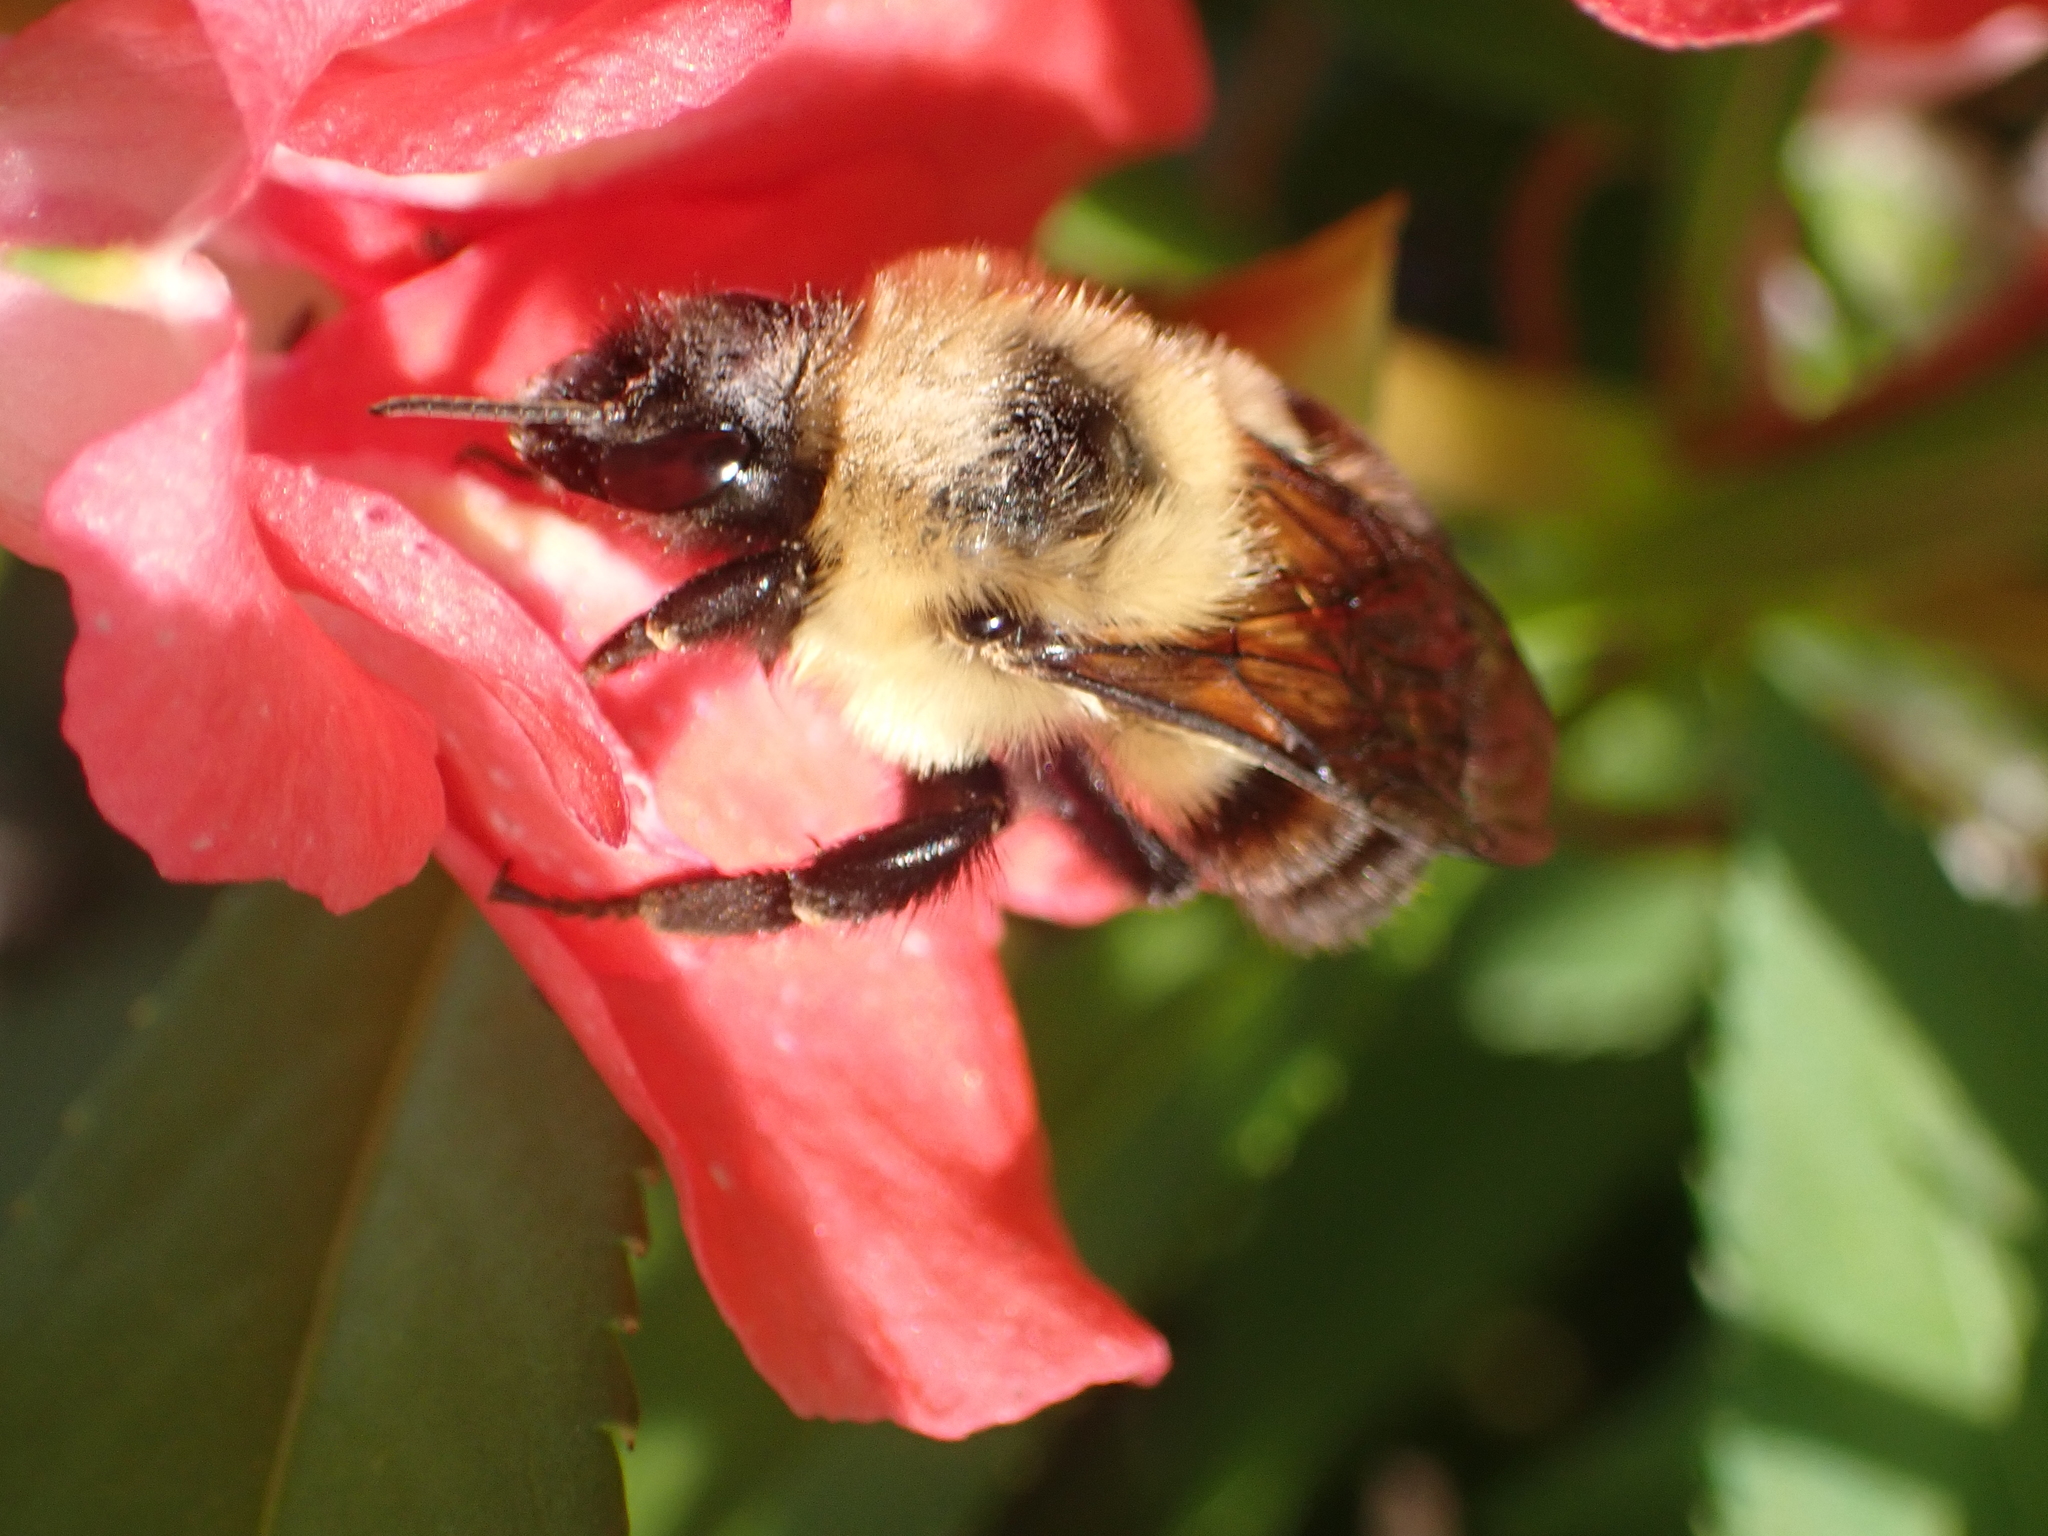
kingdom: Animalia
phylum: Arthropoda
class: Insecta
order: Hymenoptera
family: Apidae
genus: Bombus
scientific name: Bombus bimaculatus
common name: Two-spotted bumble bee
